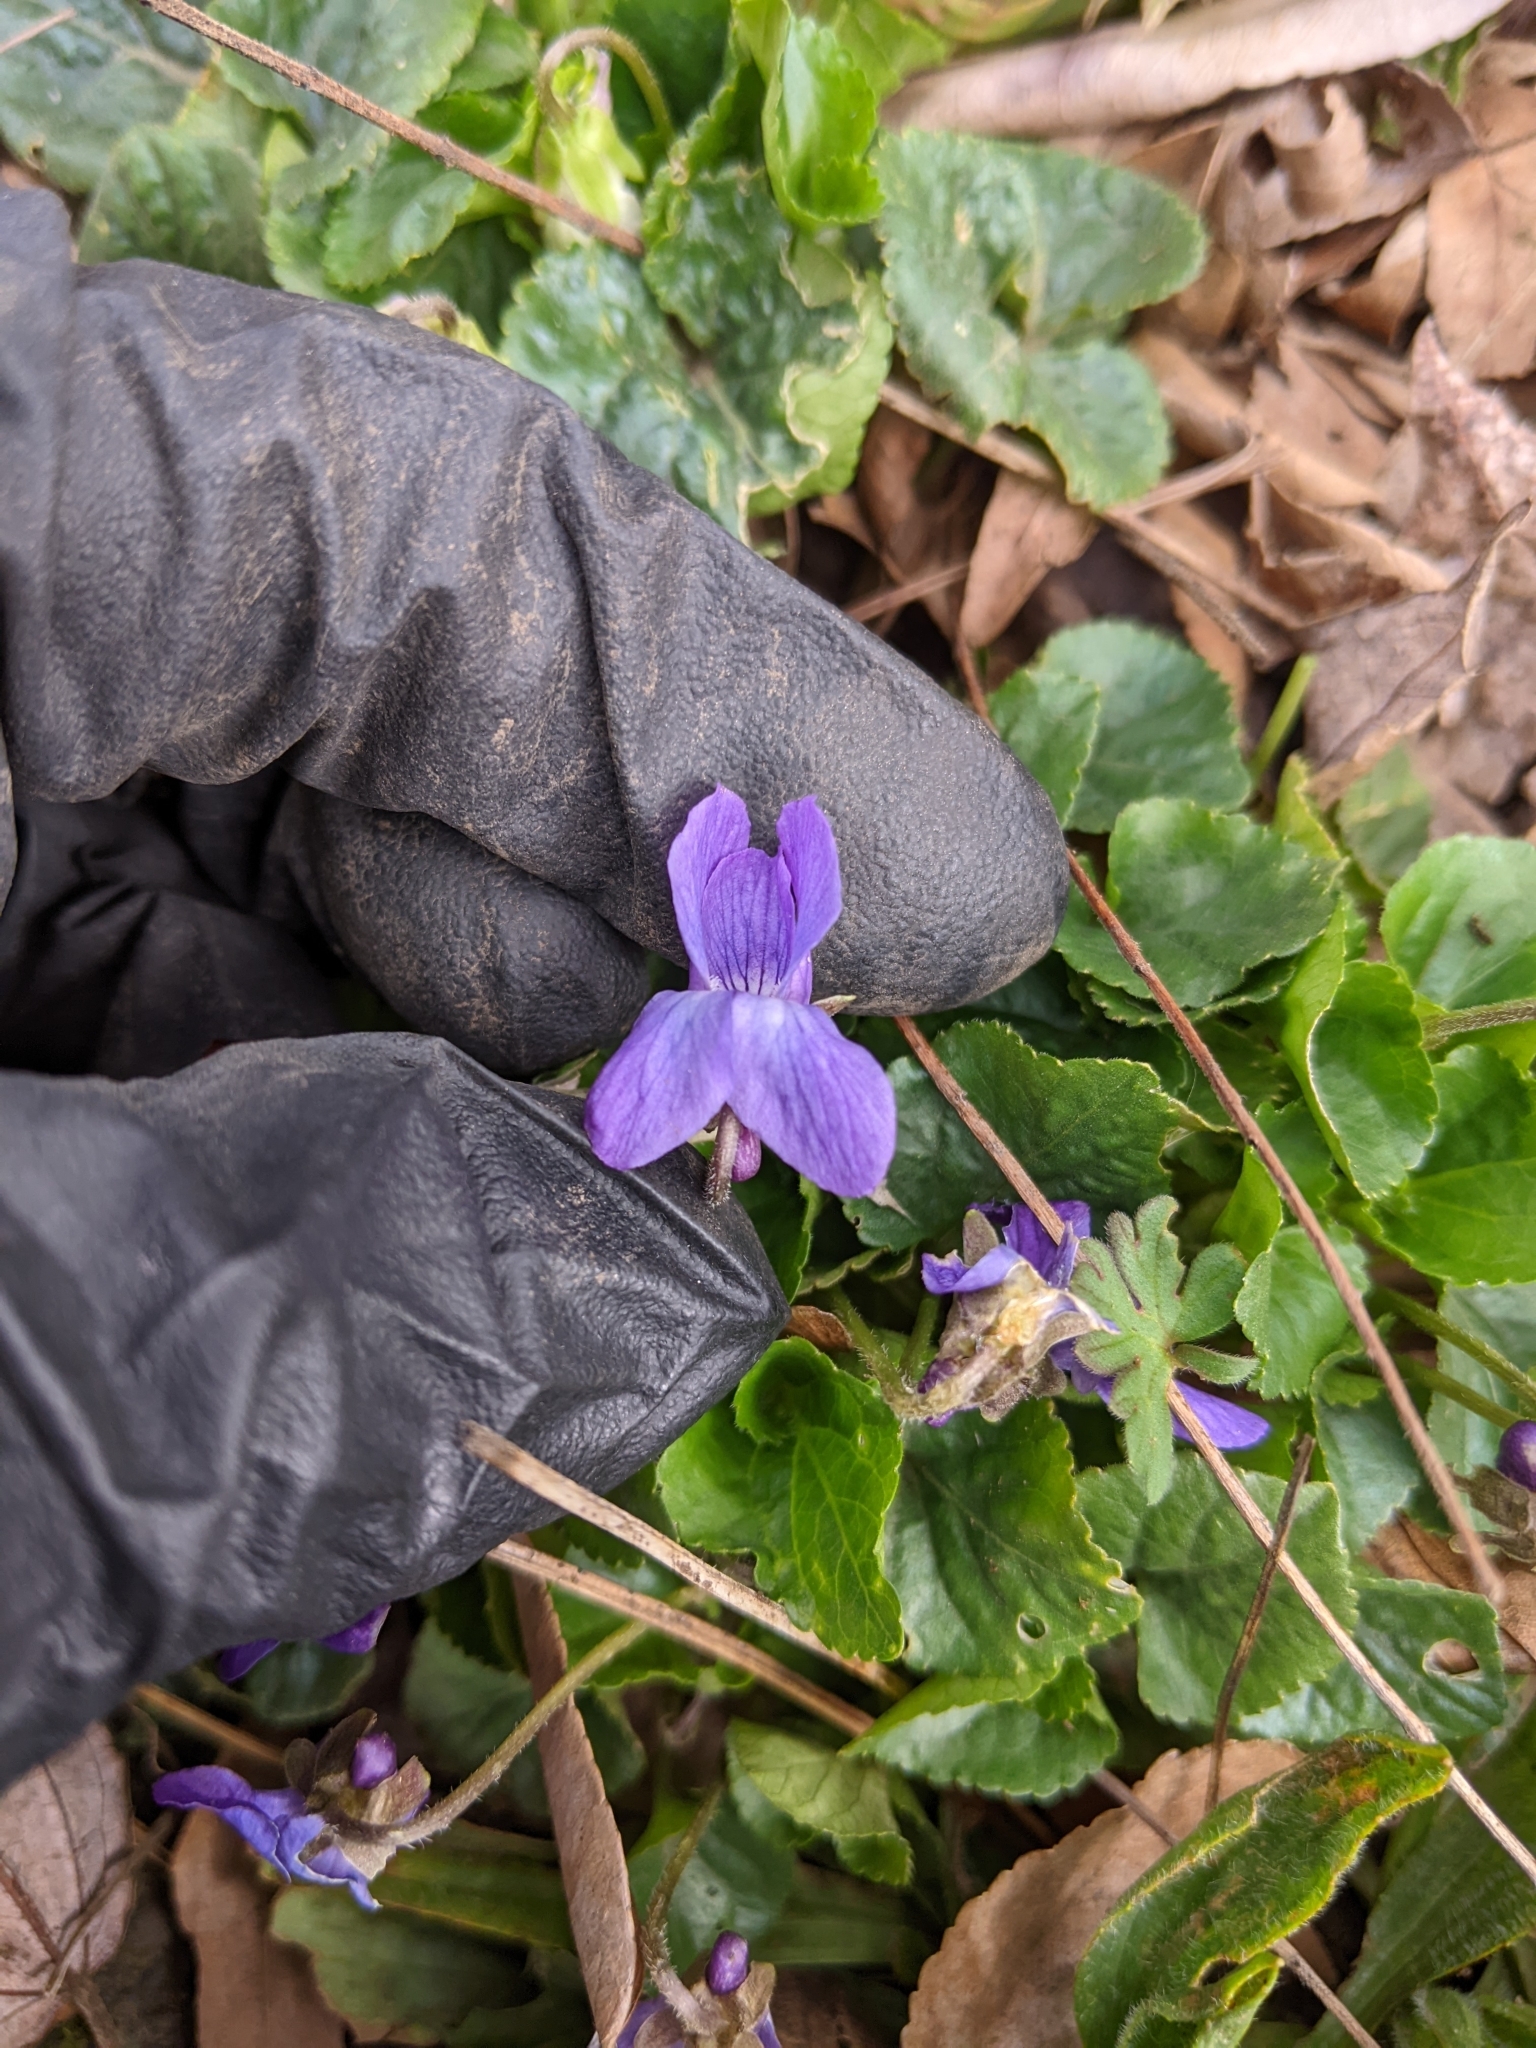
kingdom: Plantae
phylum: Tracheophyta
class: Magnoliopsida
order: Malpighiales
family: Violaceae
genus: Viola
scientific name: Viola odorata
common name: Sweet violet
